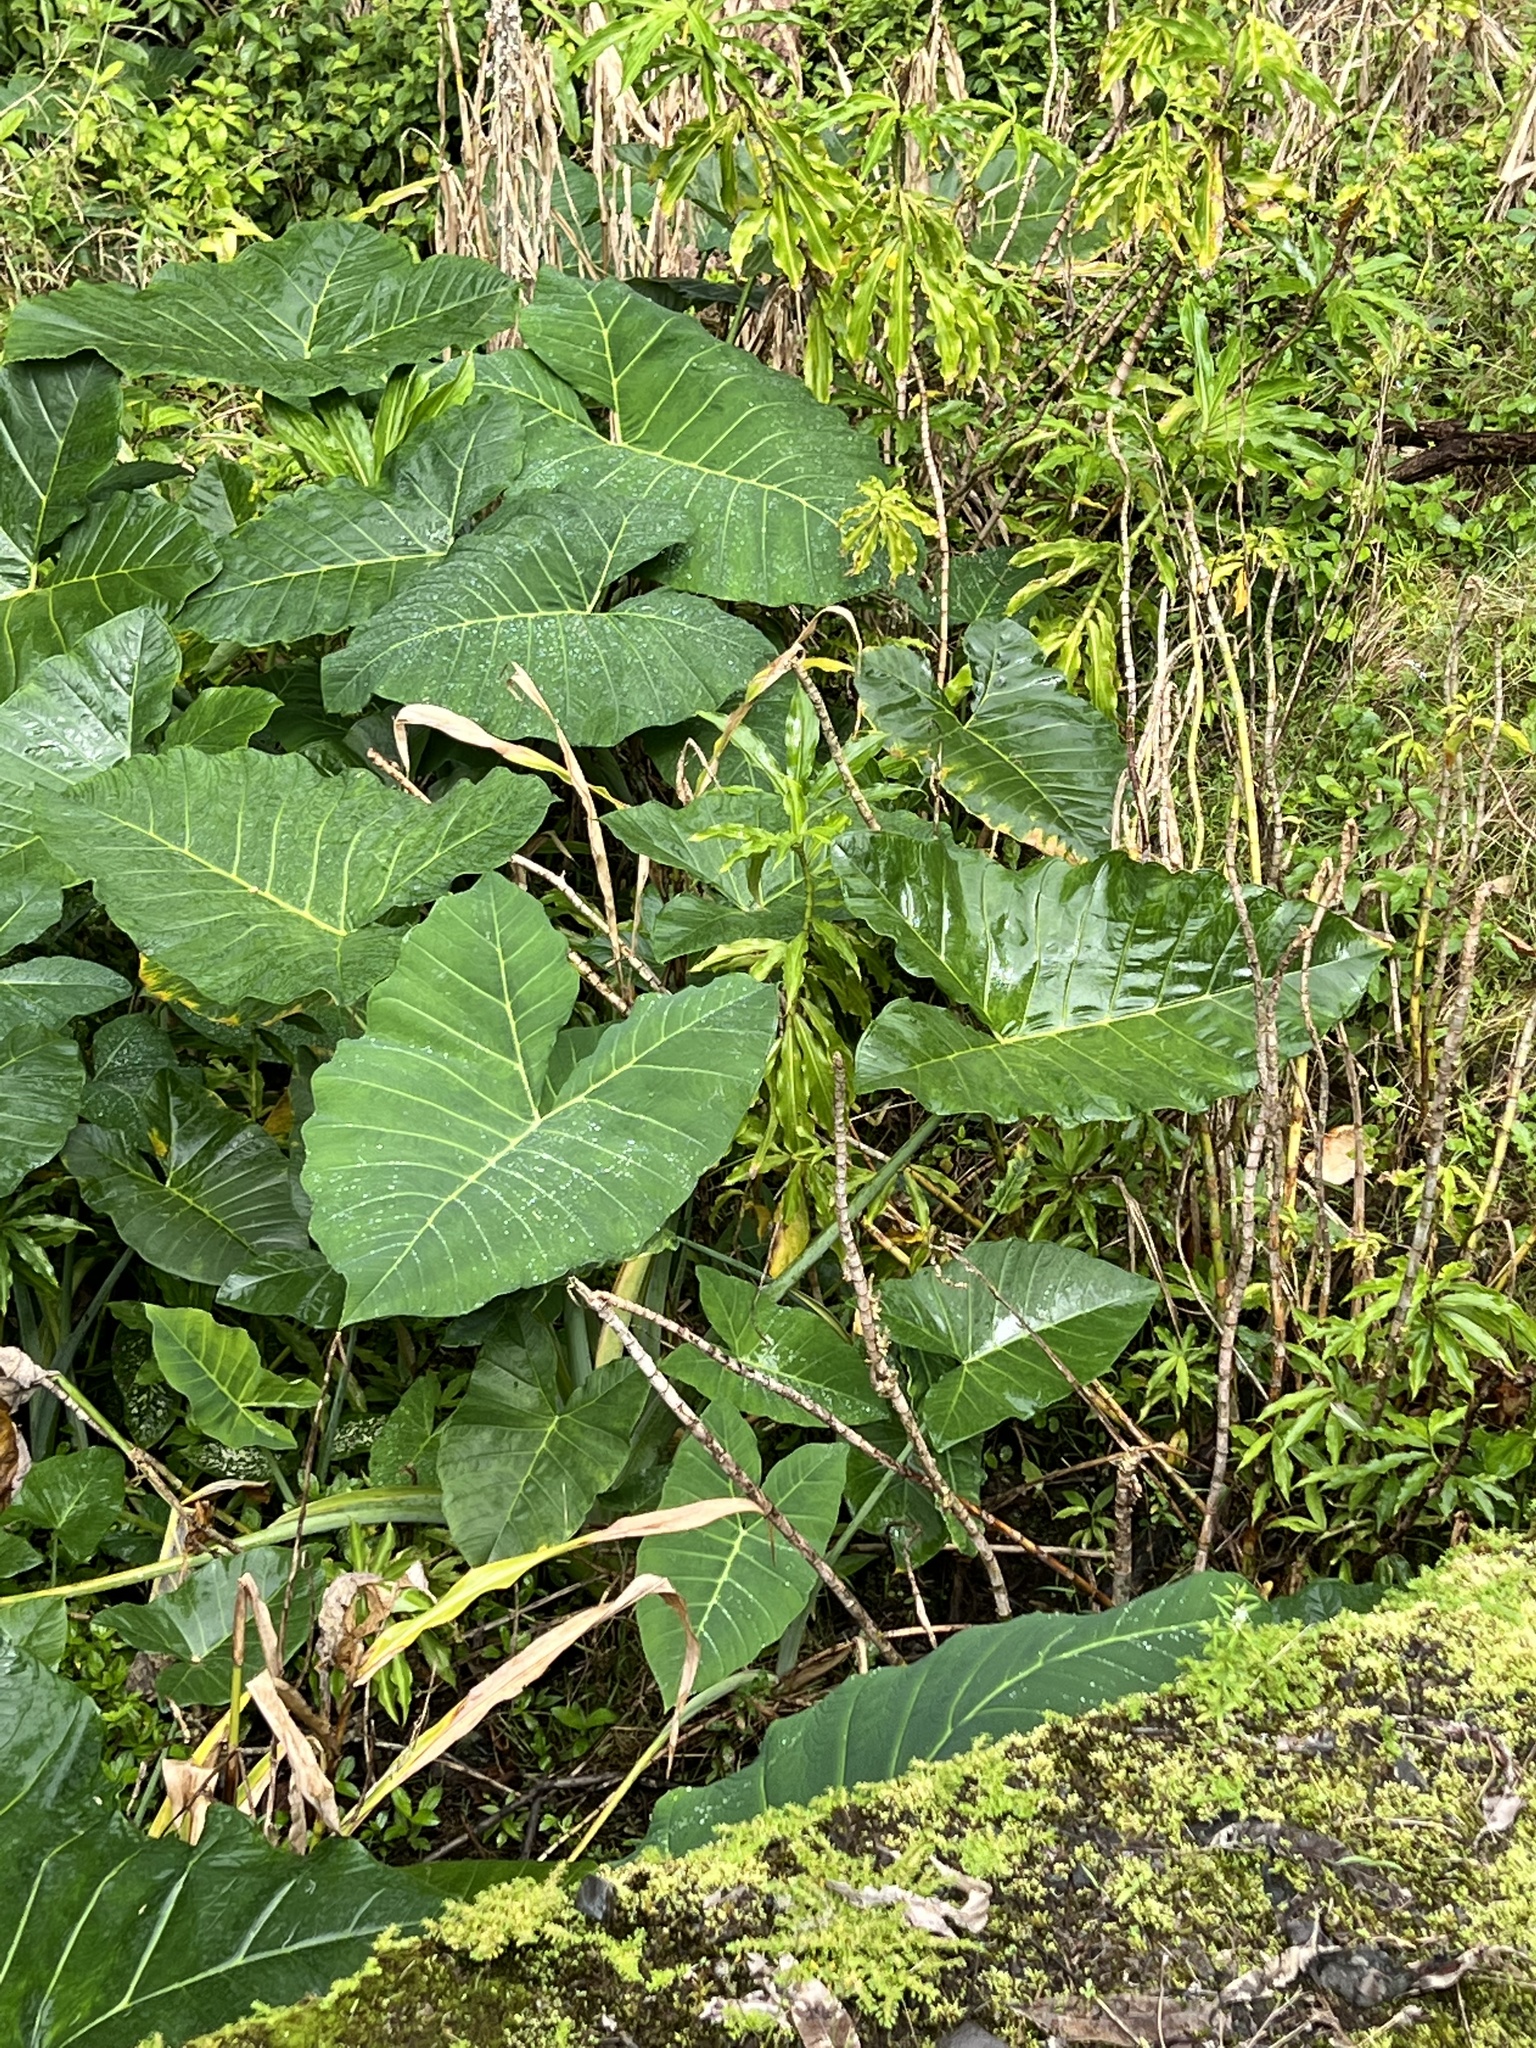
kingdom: Plantae
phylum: Tracheophyta
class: Liliopsida
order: Alismatales
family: Araceae
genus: Xanthosoma
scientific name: Xanthosoma robustum
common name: Capote
